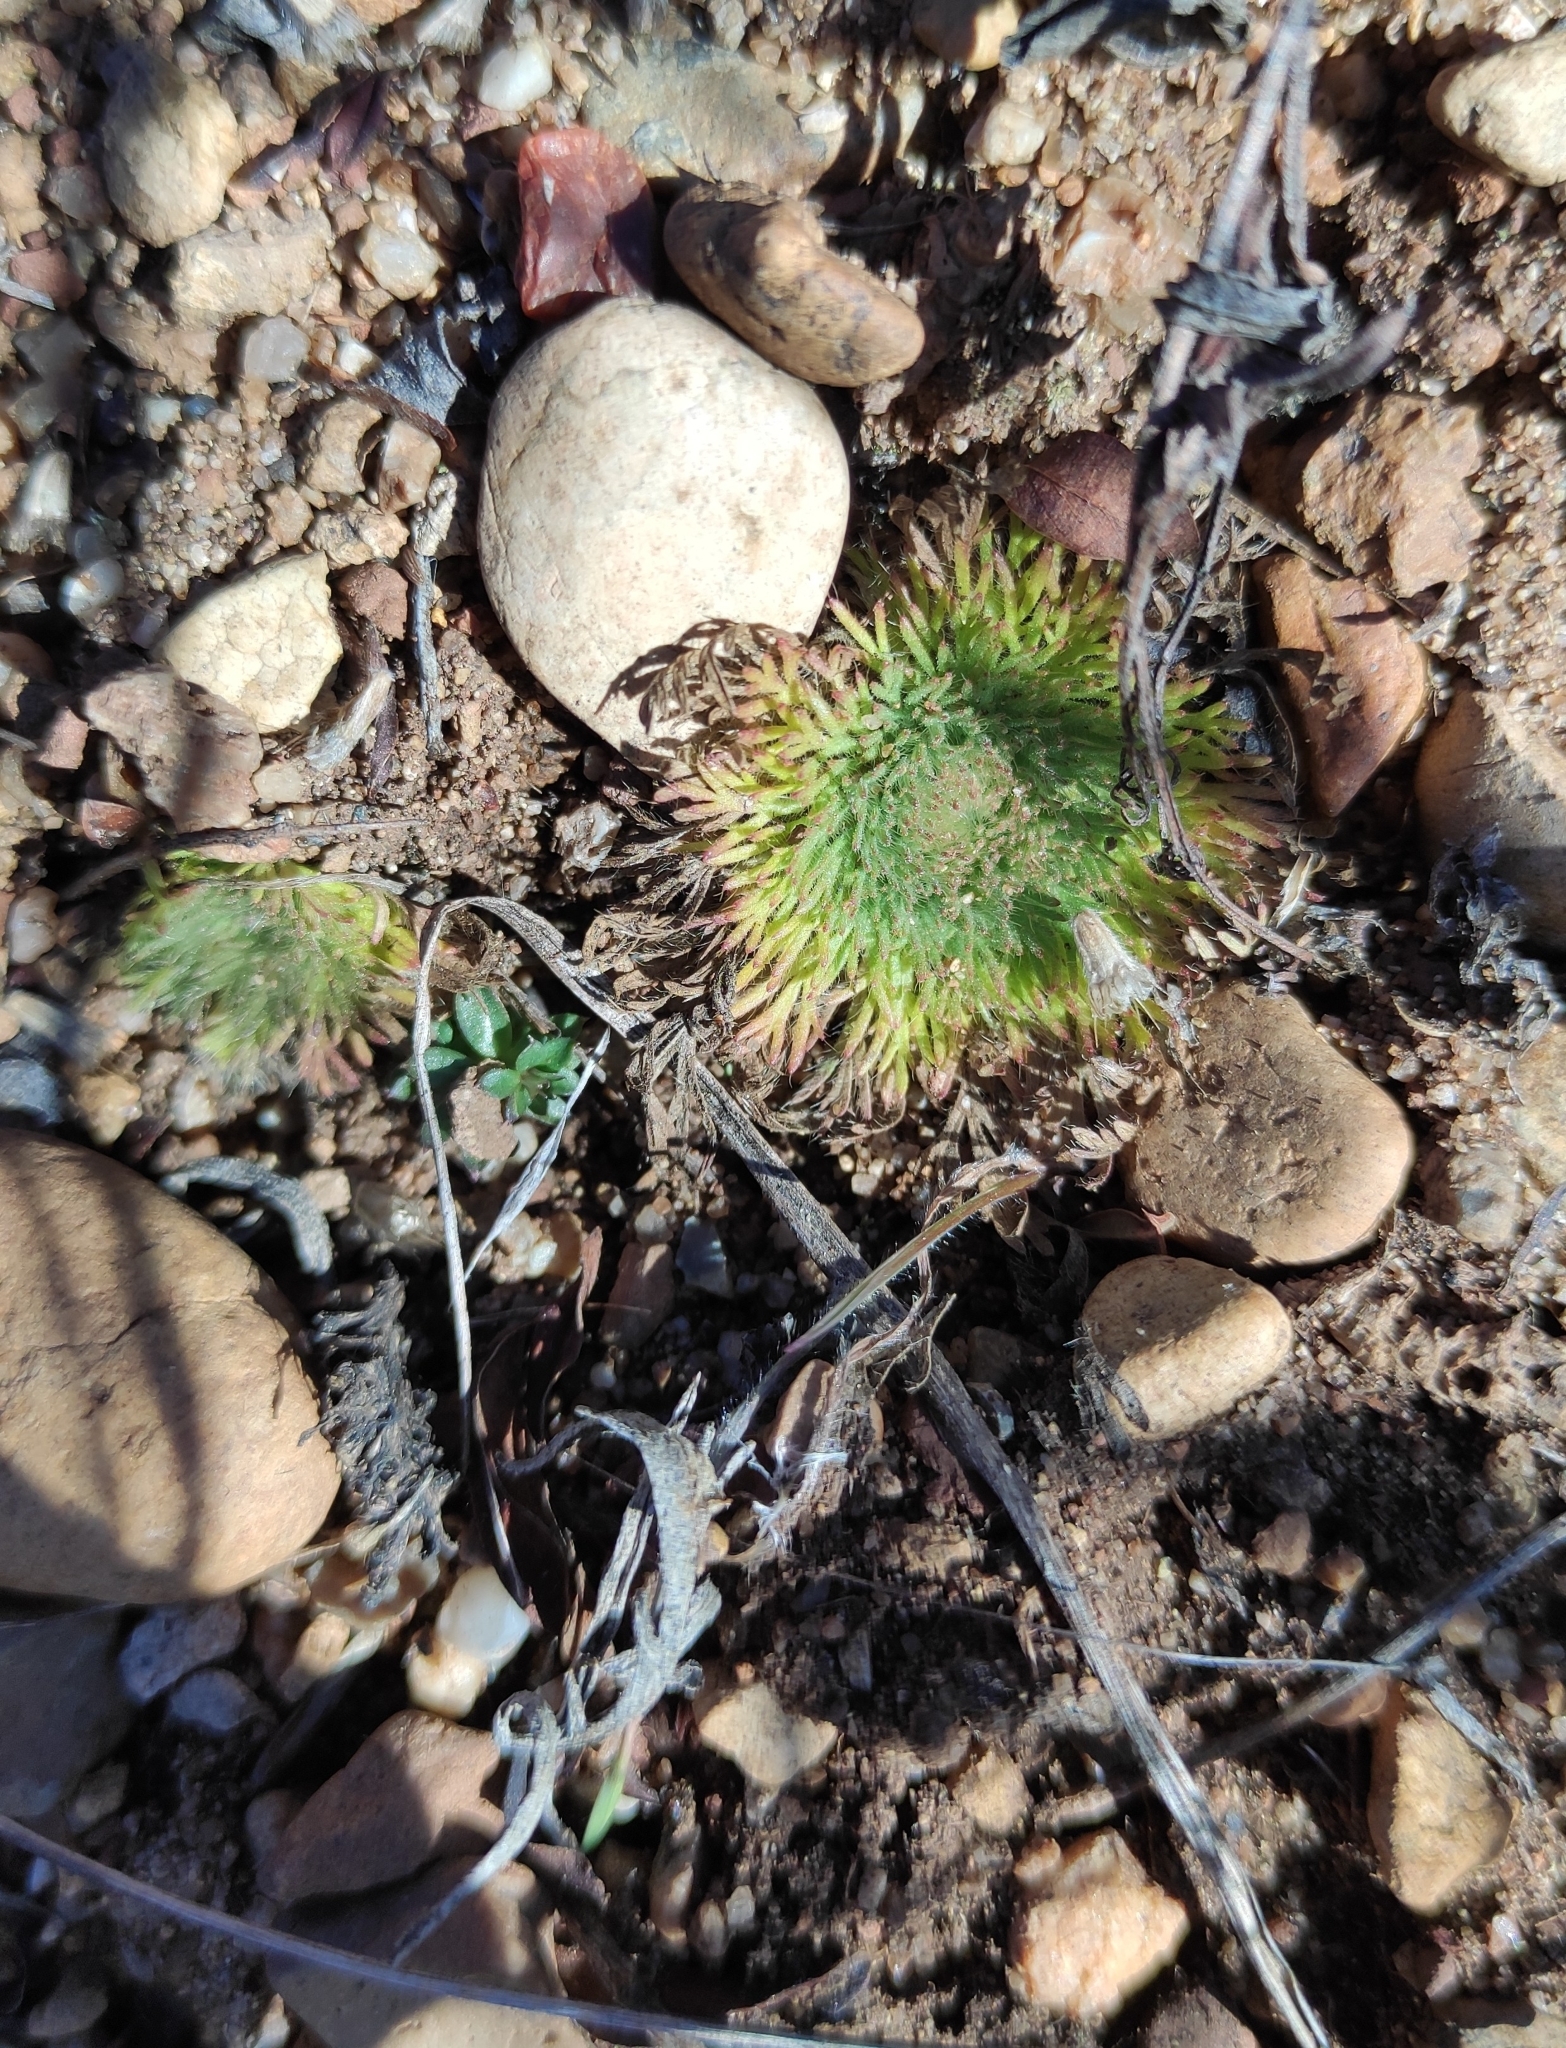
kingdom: Plantae
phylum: Tracheophyta
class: Magnoliopsida
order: Rosales
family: Rosaceae
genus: Chamaerhodos
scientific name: Chamaerhodos erecta
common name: American chamaerhodos
